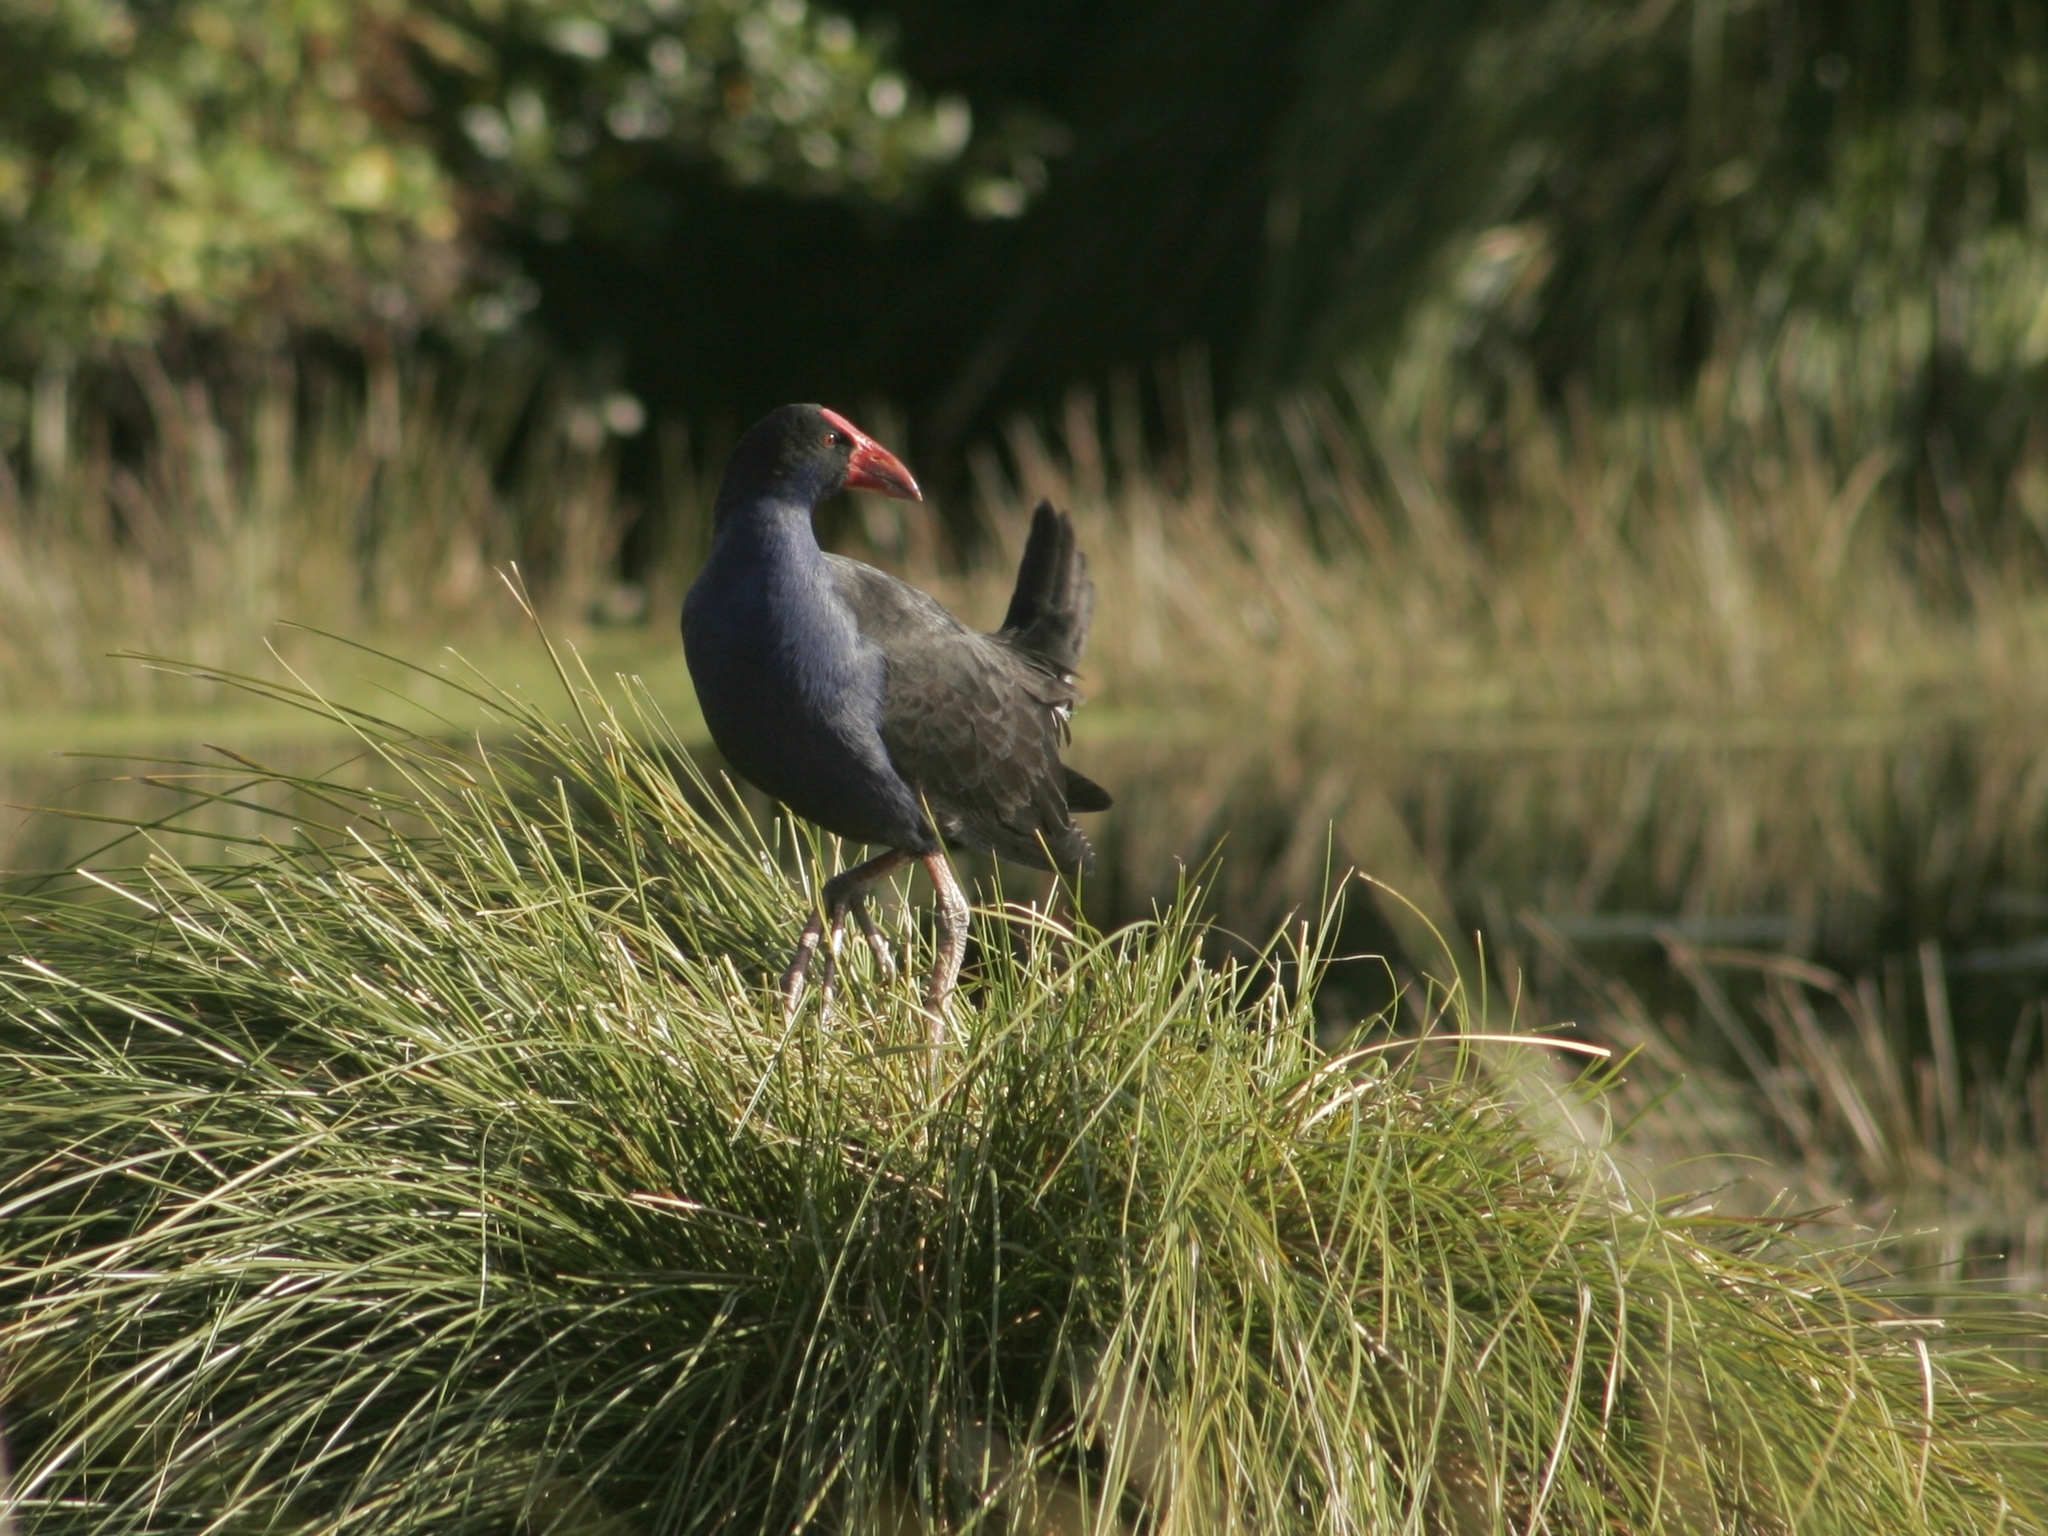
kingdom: Animalia
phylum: Chordata
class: Aves
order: Gruiformes
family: Rallidae
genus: Porphyrio
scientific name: Porphyrio melanotus
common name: Australasian swamphen
